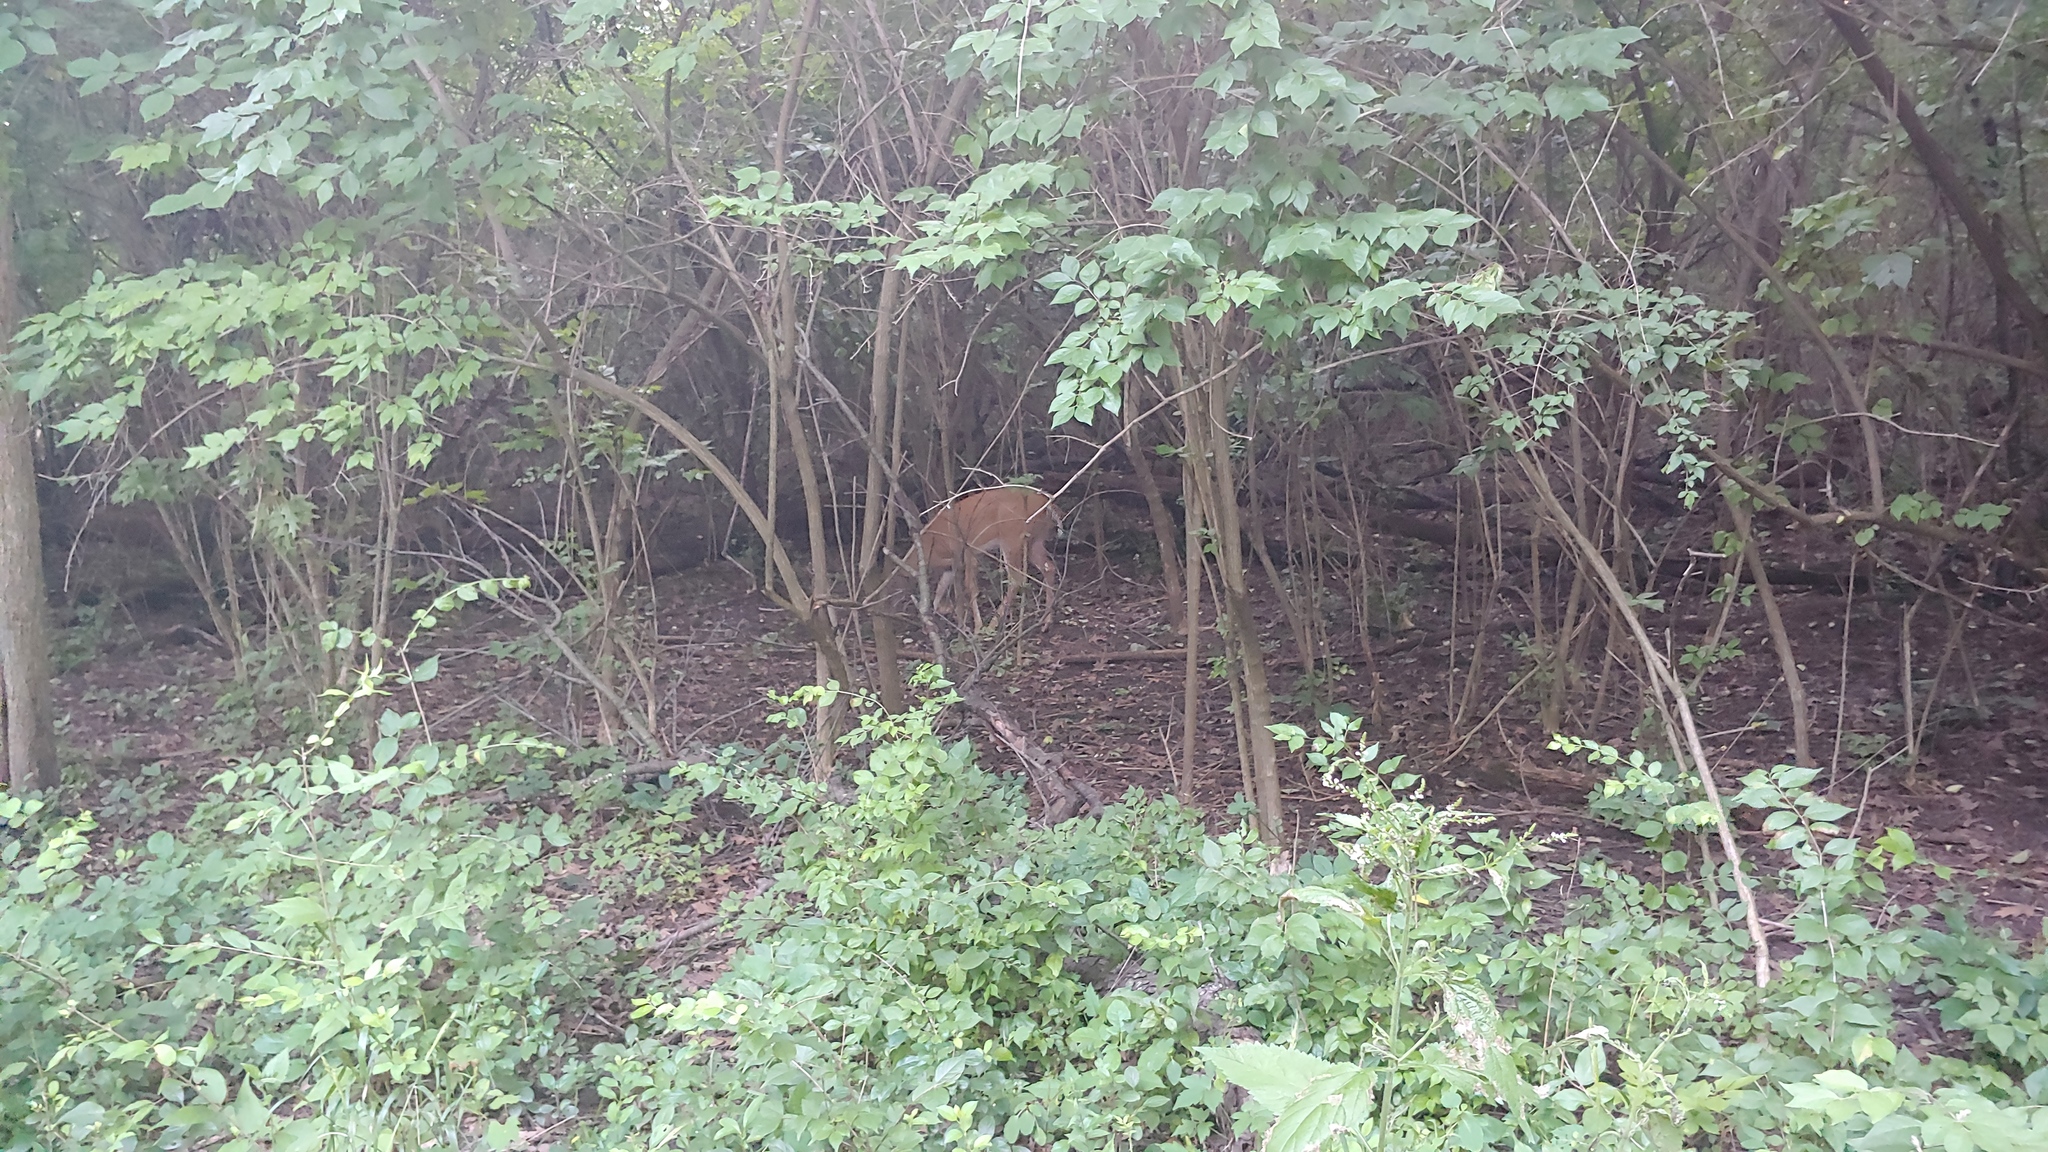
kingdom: Animalia
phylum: Chordata
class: Mammalia
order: Artiodactyla
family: Cervidae
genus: Odocoileus
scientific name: Odocoileus virginianus
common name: White-tailed deer
